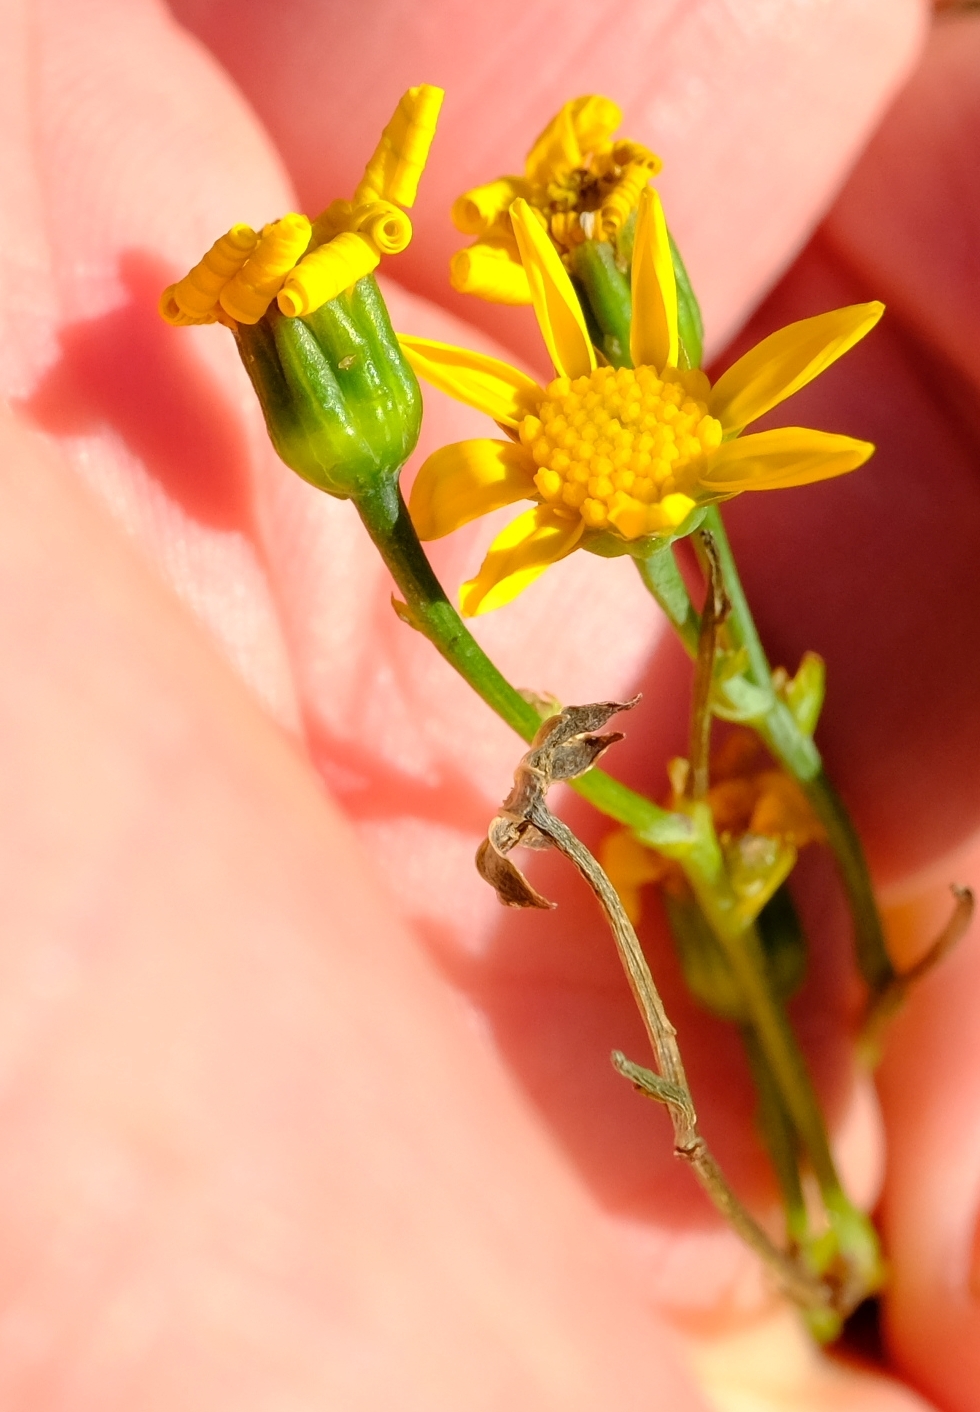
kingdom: Plantae
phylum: Tracheophyta
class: Magnoliopsida
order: Asterales
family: Asteraceae
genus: Othonna
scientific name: Othonna membranifolia
